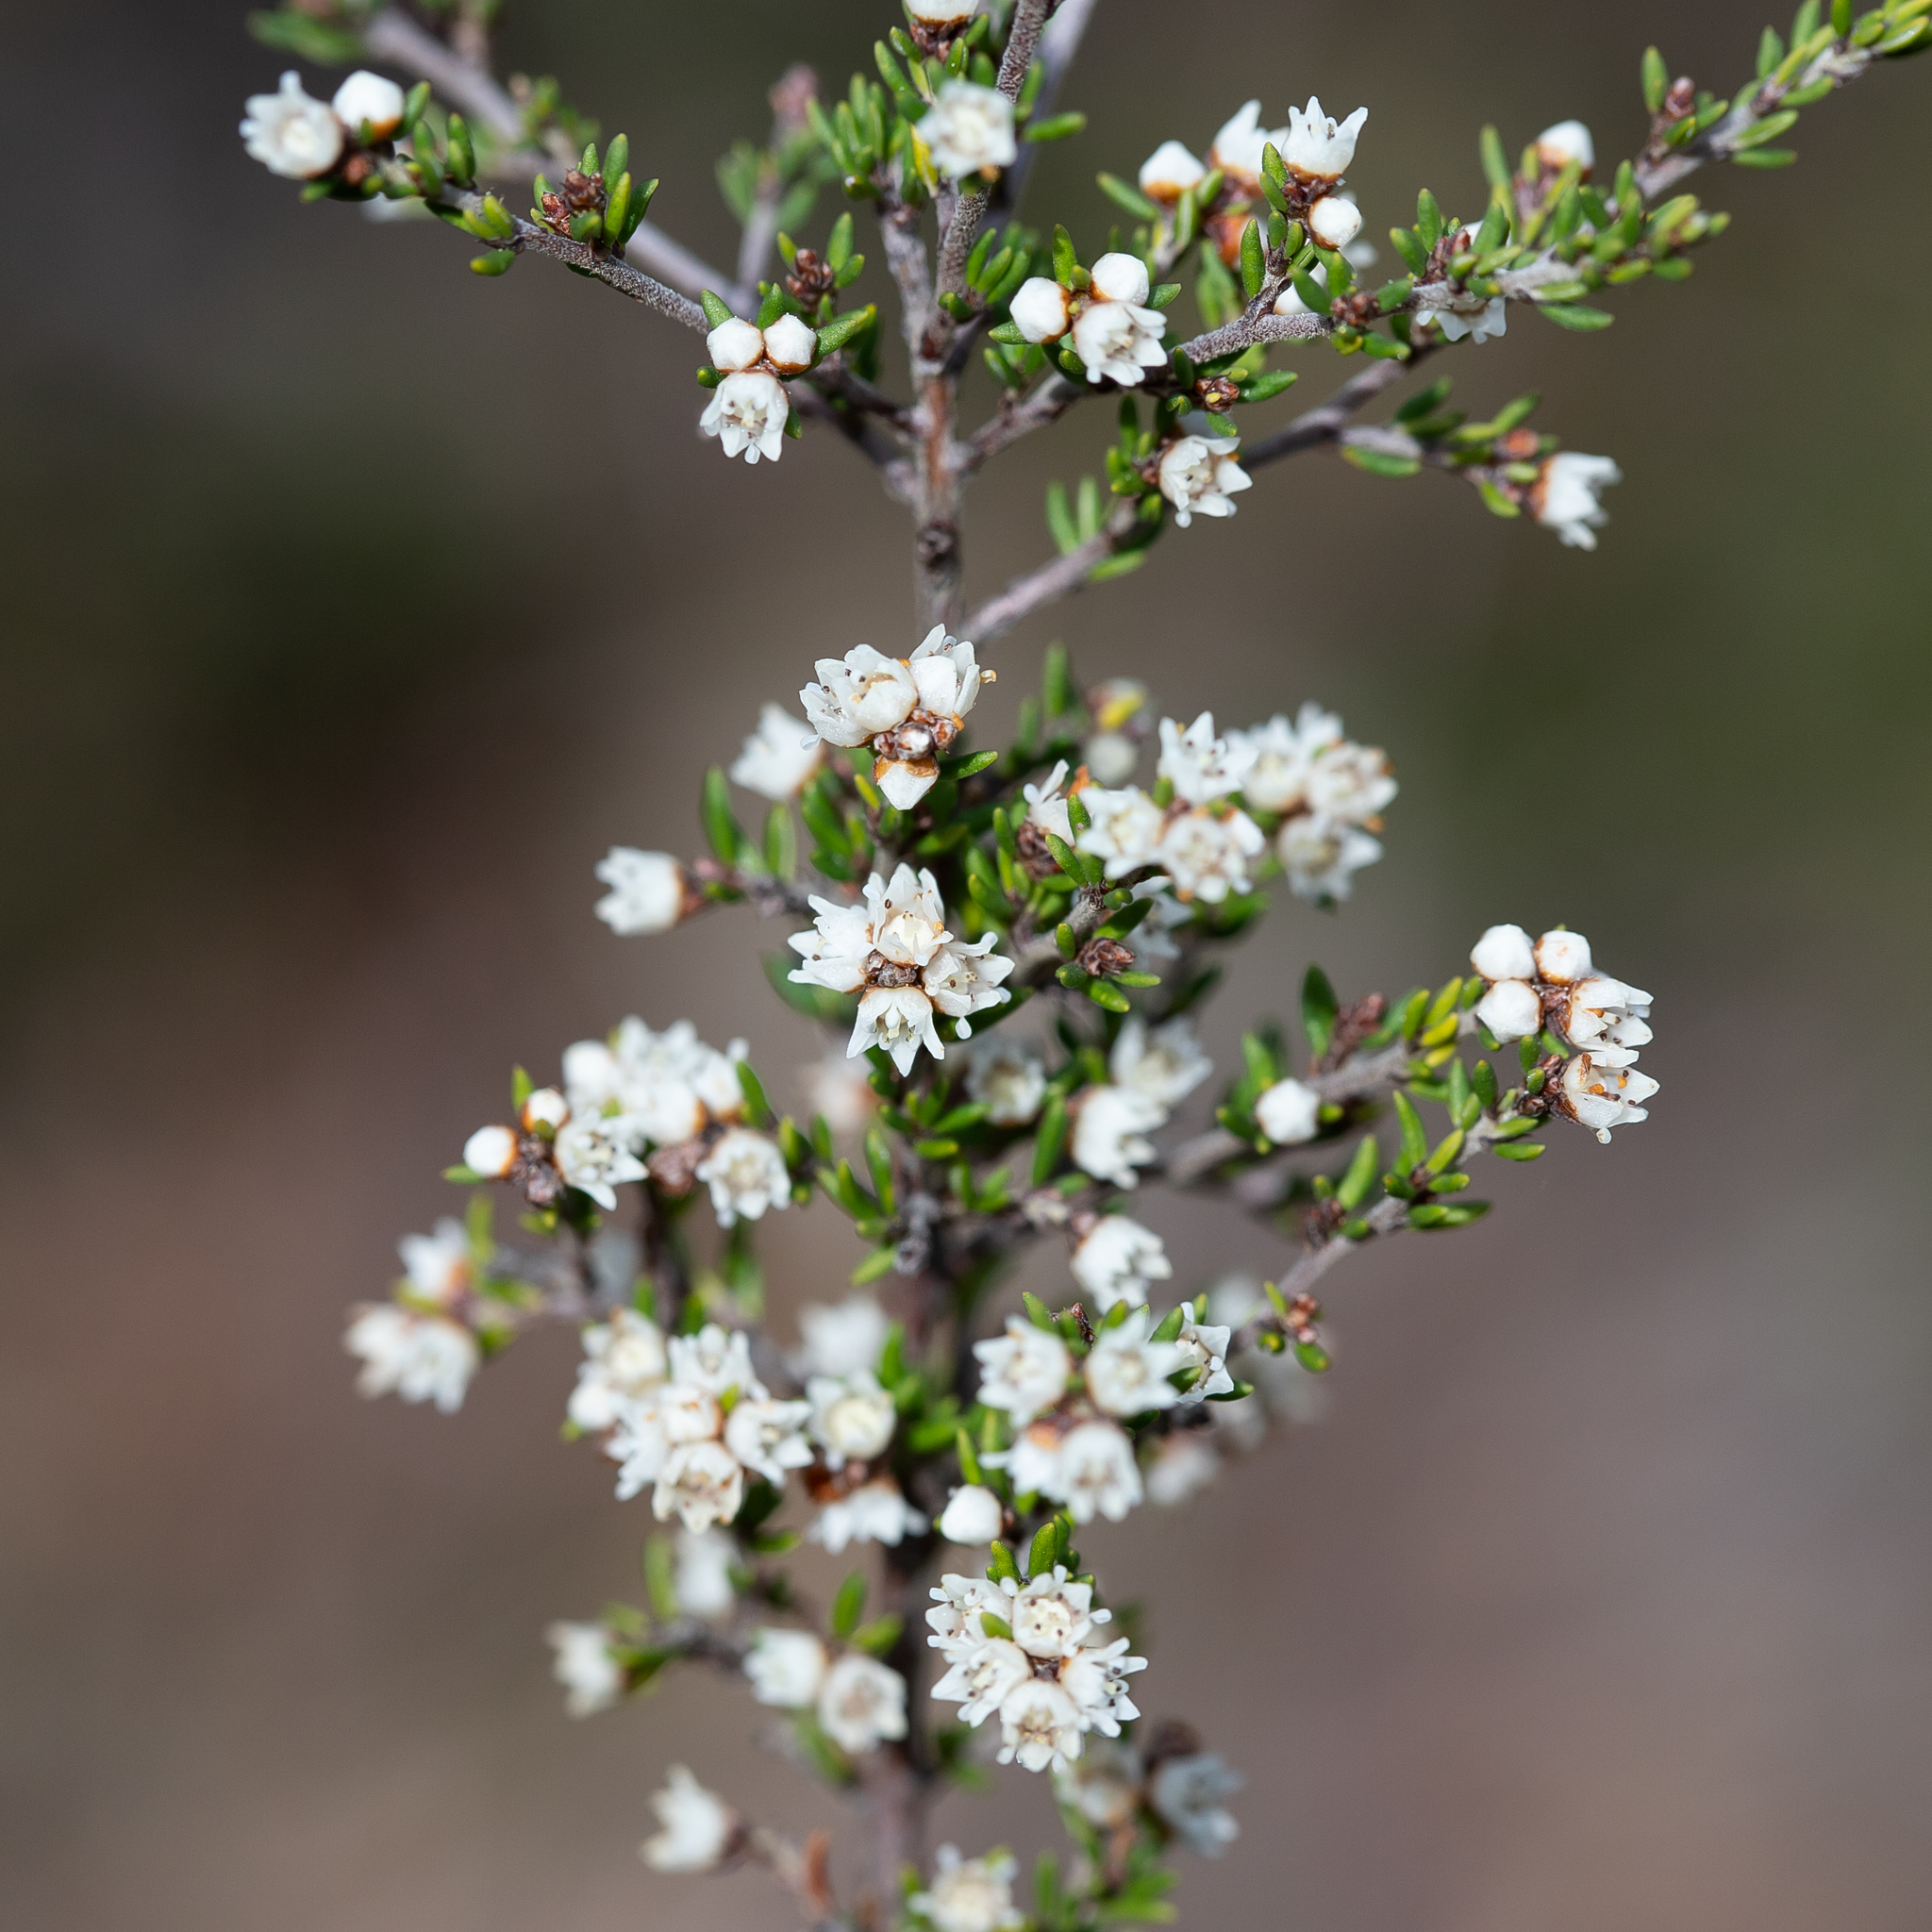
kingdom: Plantae
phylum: Tracheophyta
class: Magnoliopsida
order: Rosales
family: Rhamnaceae
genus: Cryptandra
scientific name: Cryptandra tomentosa
